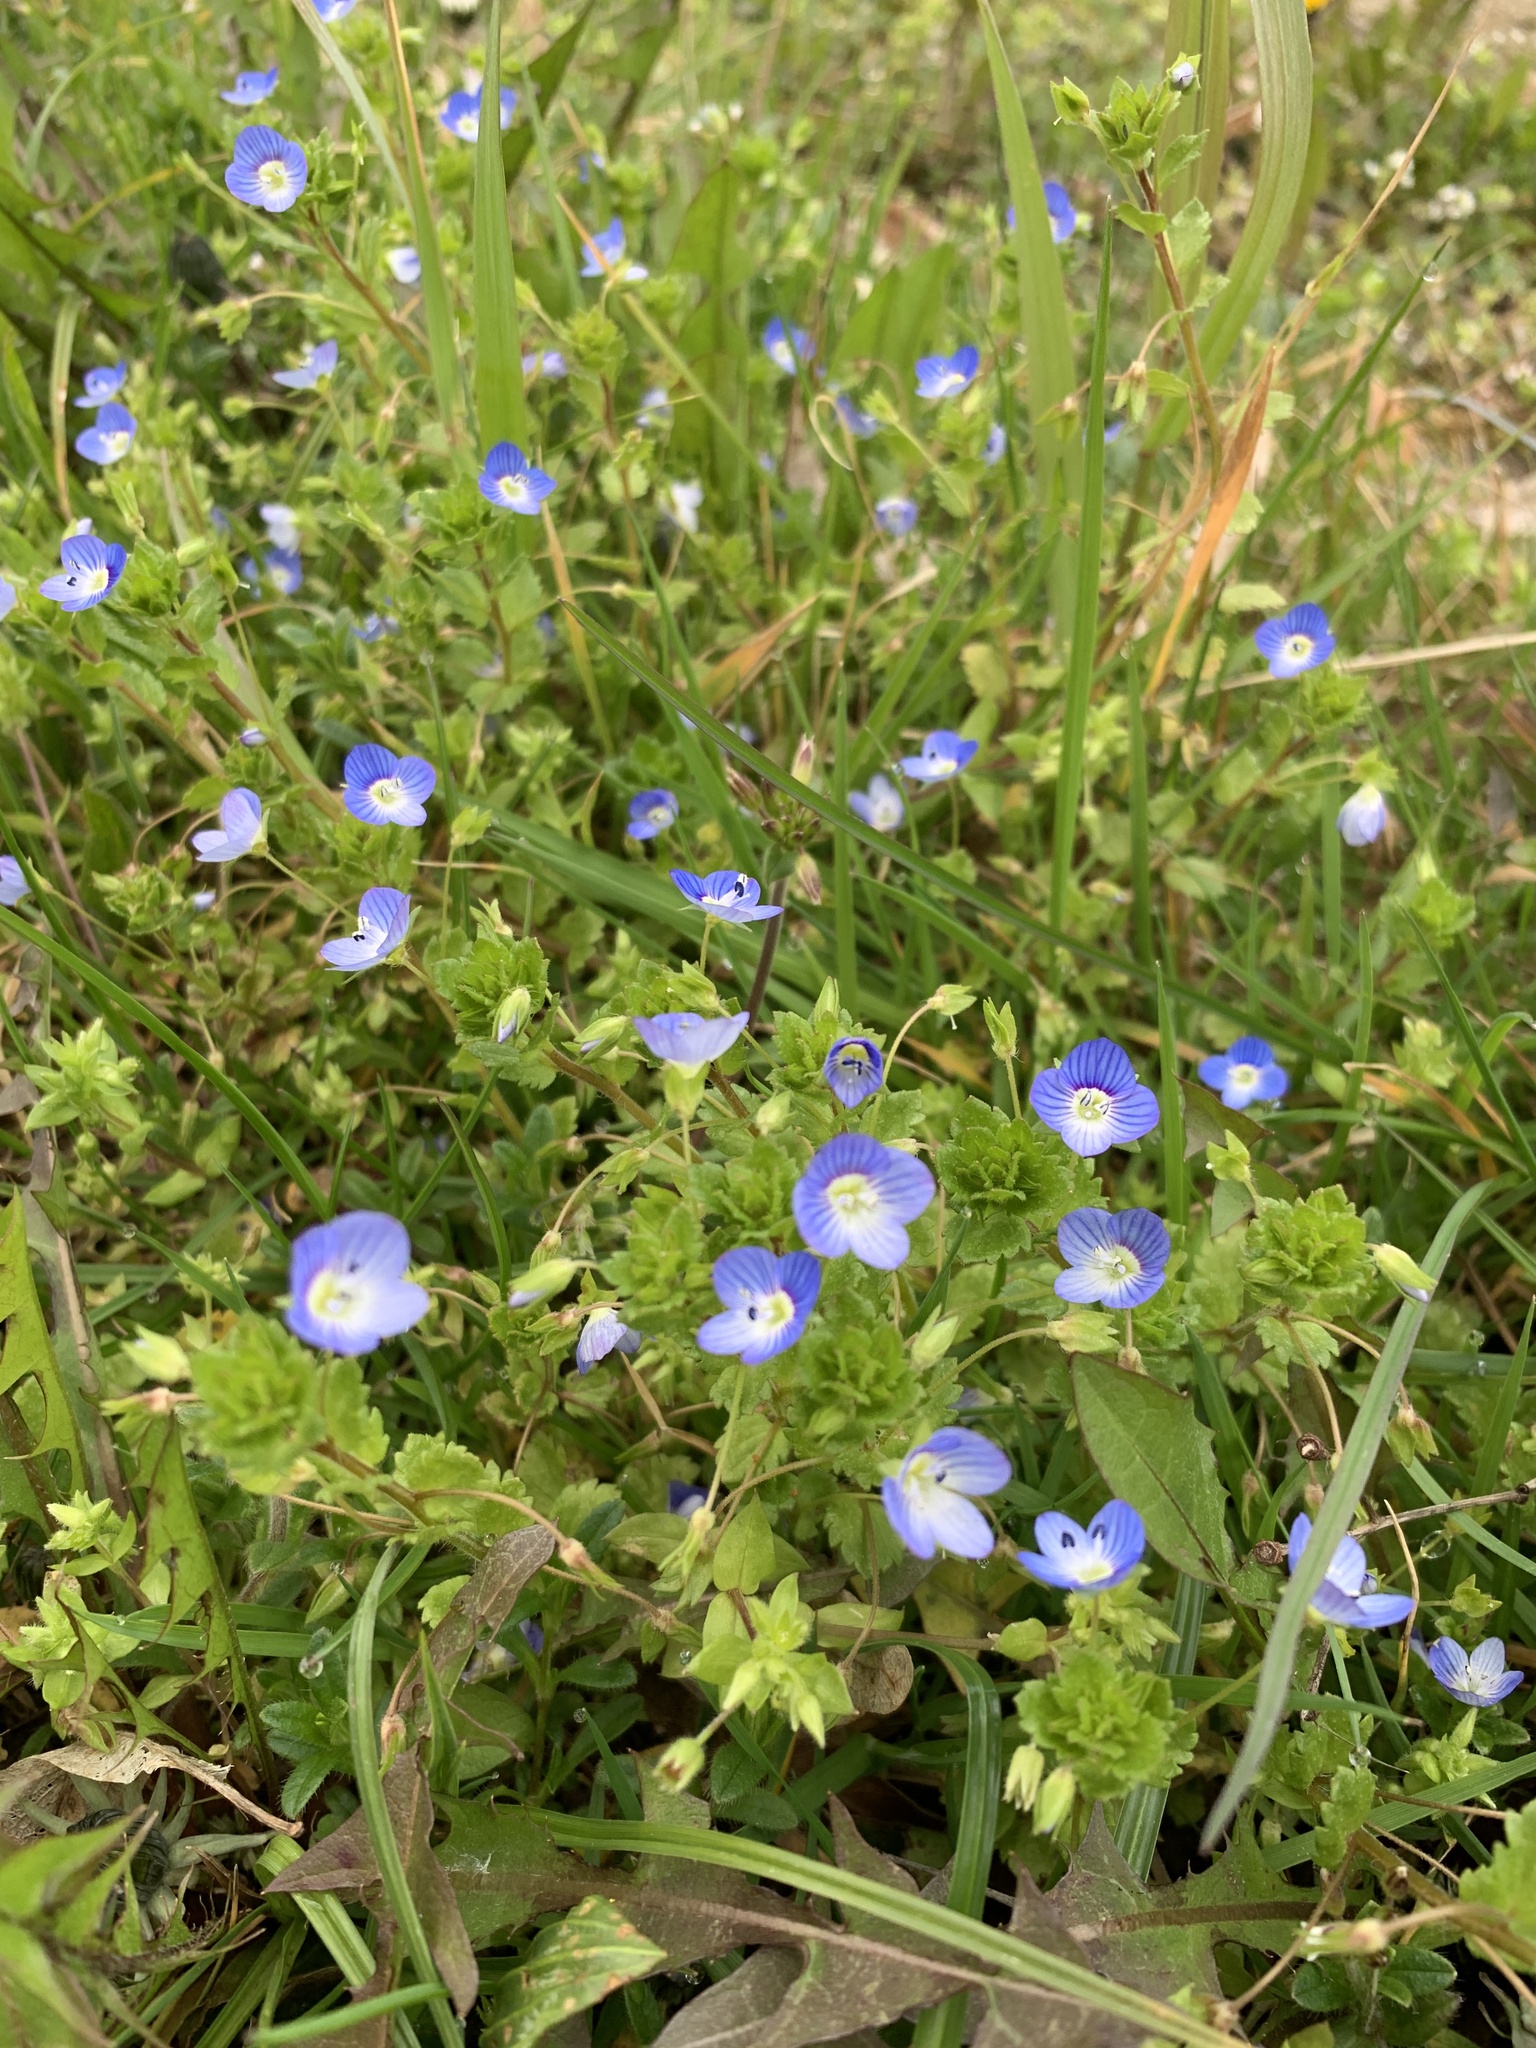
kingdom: Plantae
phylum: Tracheophyta
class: Magnoliopsida
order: Lamiales
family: Plantaginaceae
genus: Veronica
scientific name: Veronica persica
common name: Common field-speedwell
